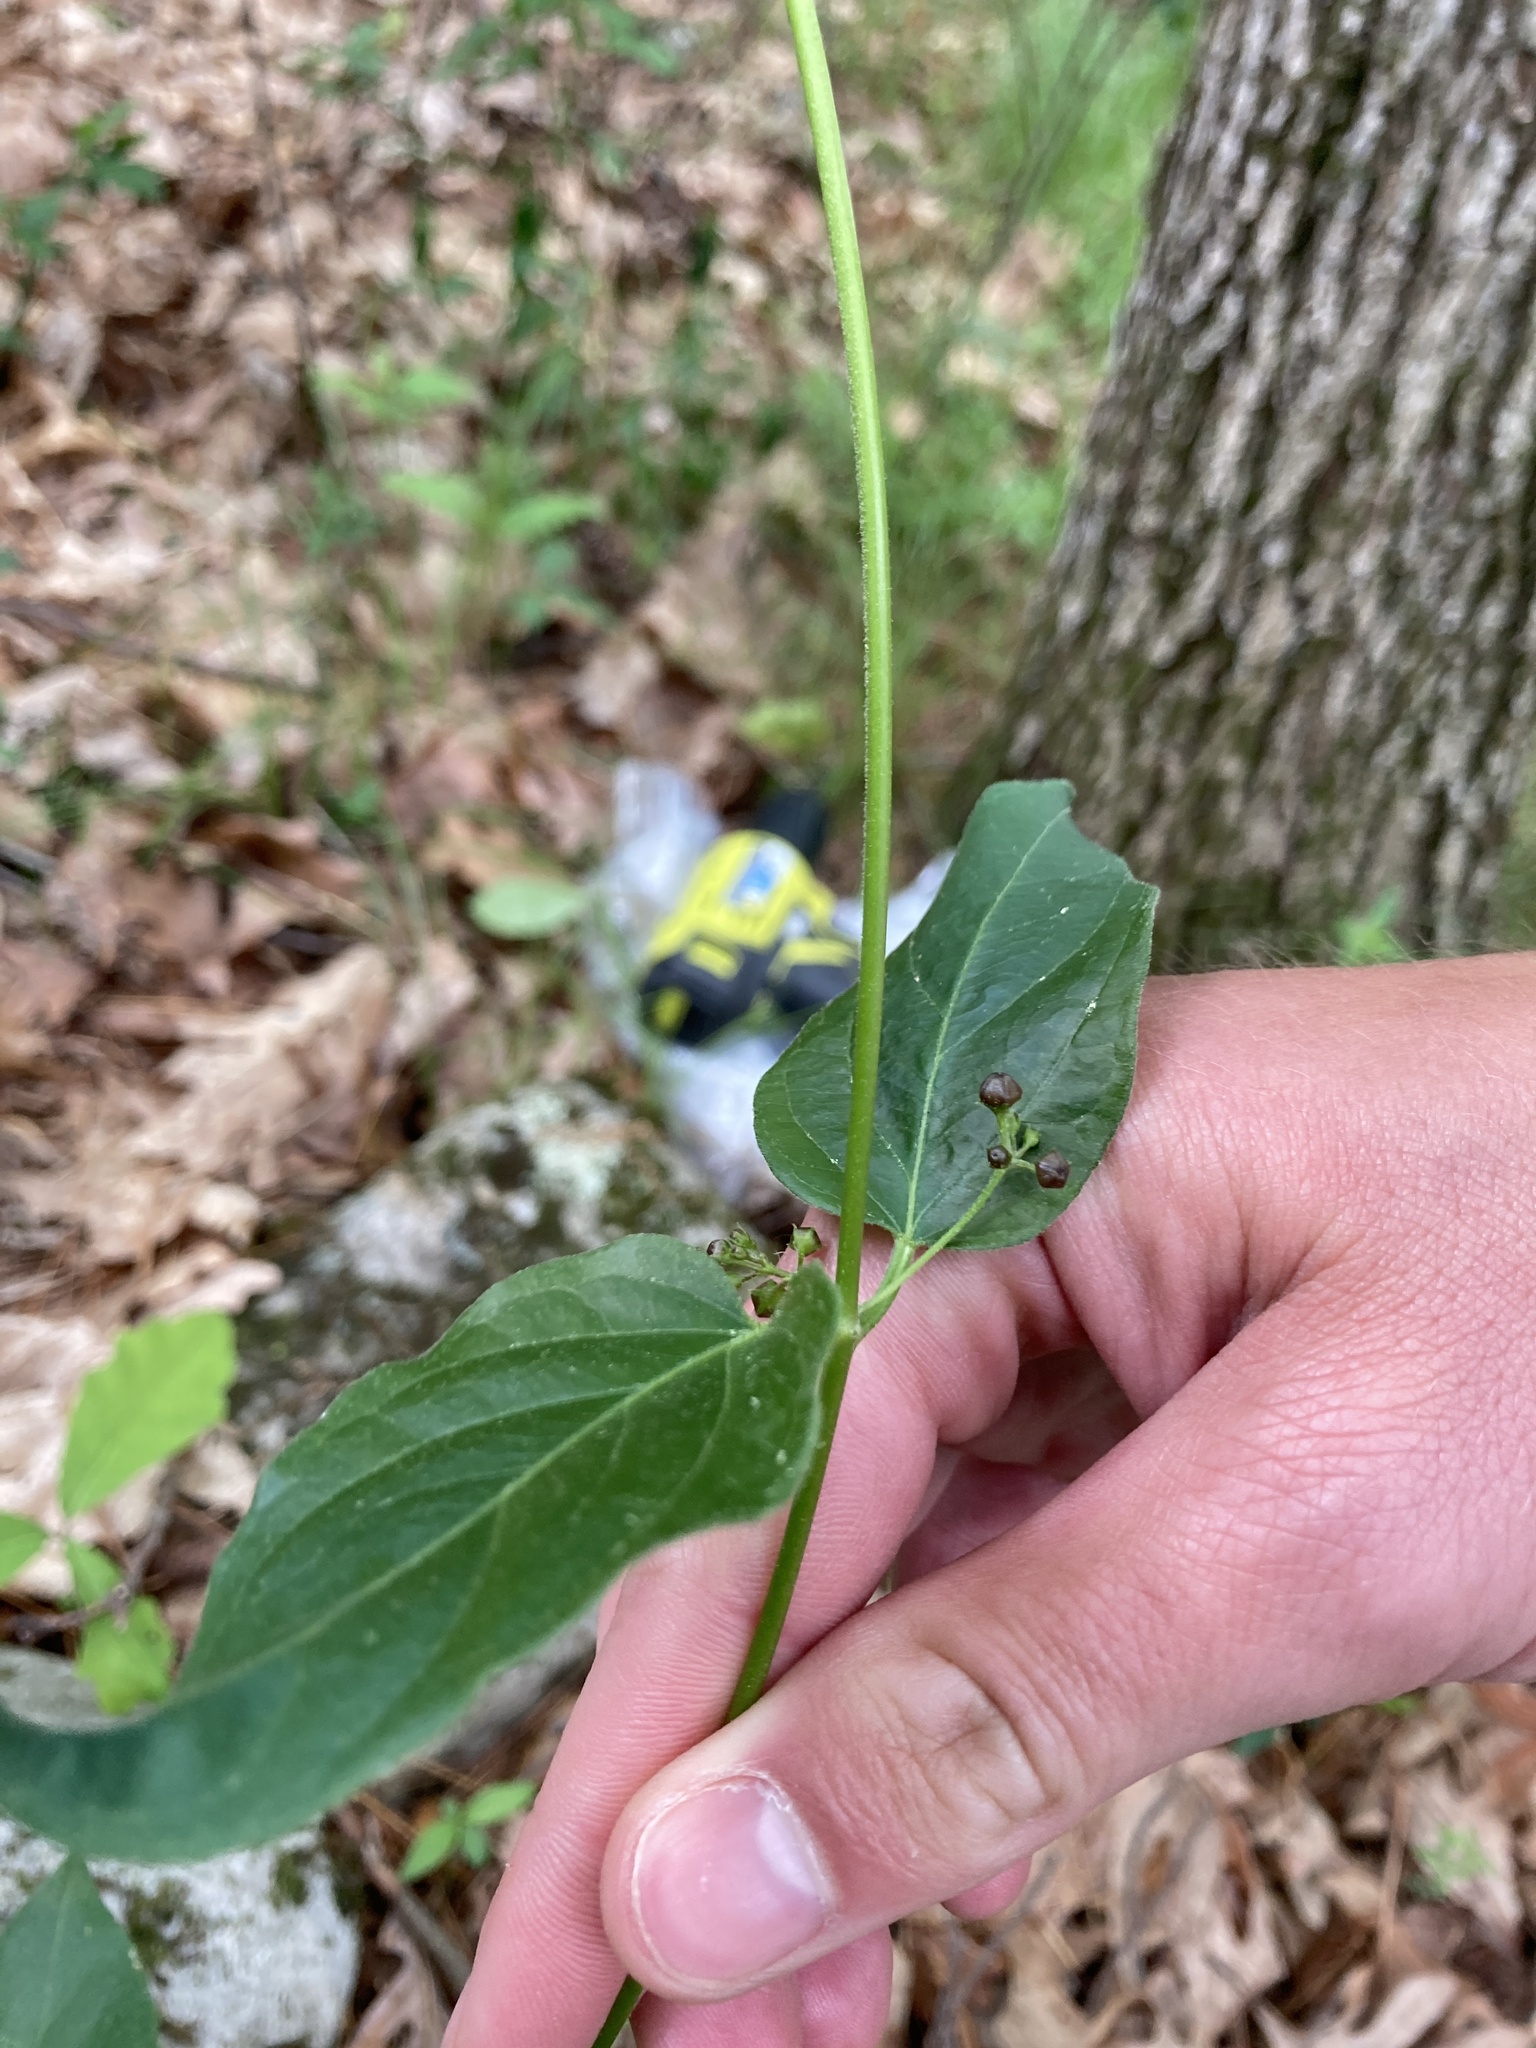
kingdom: Plantae
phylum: Tracheophyta
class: Magnoliopsida
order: Gentianales
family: Apocynaceae
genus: Vincetoxicum
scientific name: Vincetoxicum nigrum
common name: Black swallow-wort
